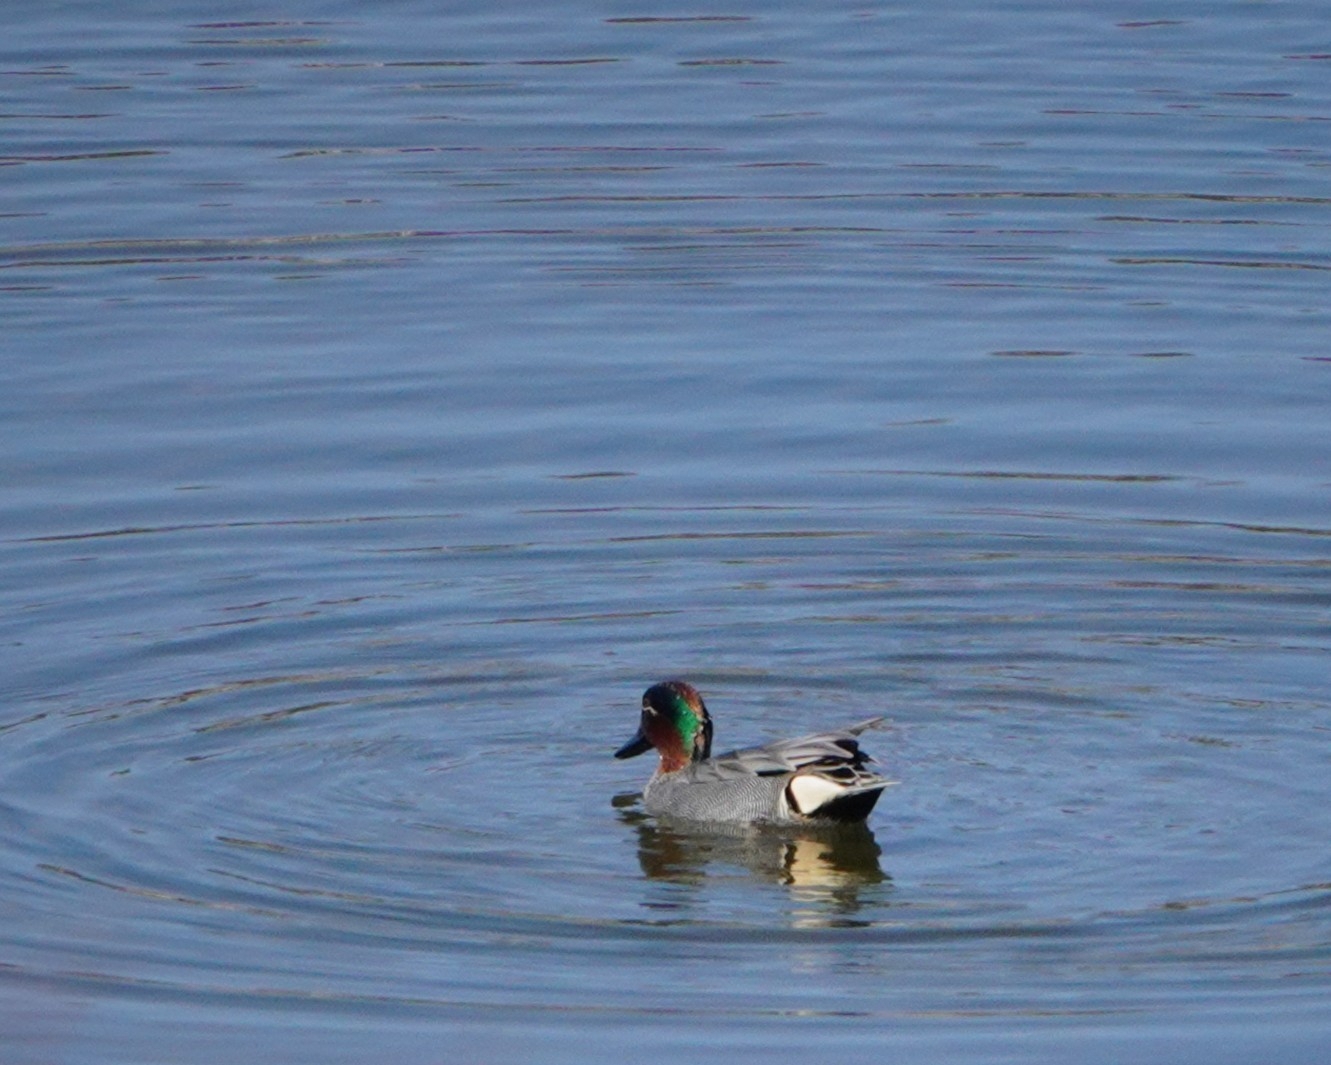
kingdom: Animalia
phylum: Chordata
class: Aves
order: Anseriformes
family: Anatidae
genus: Anas
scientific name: Anas crecca
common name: Eurasian teal
